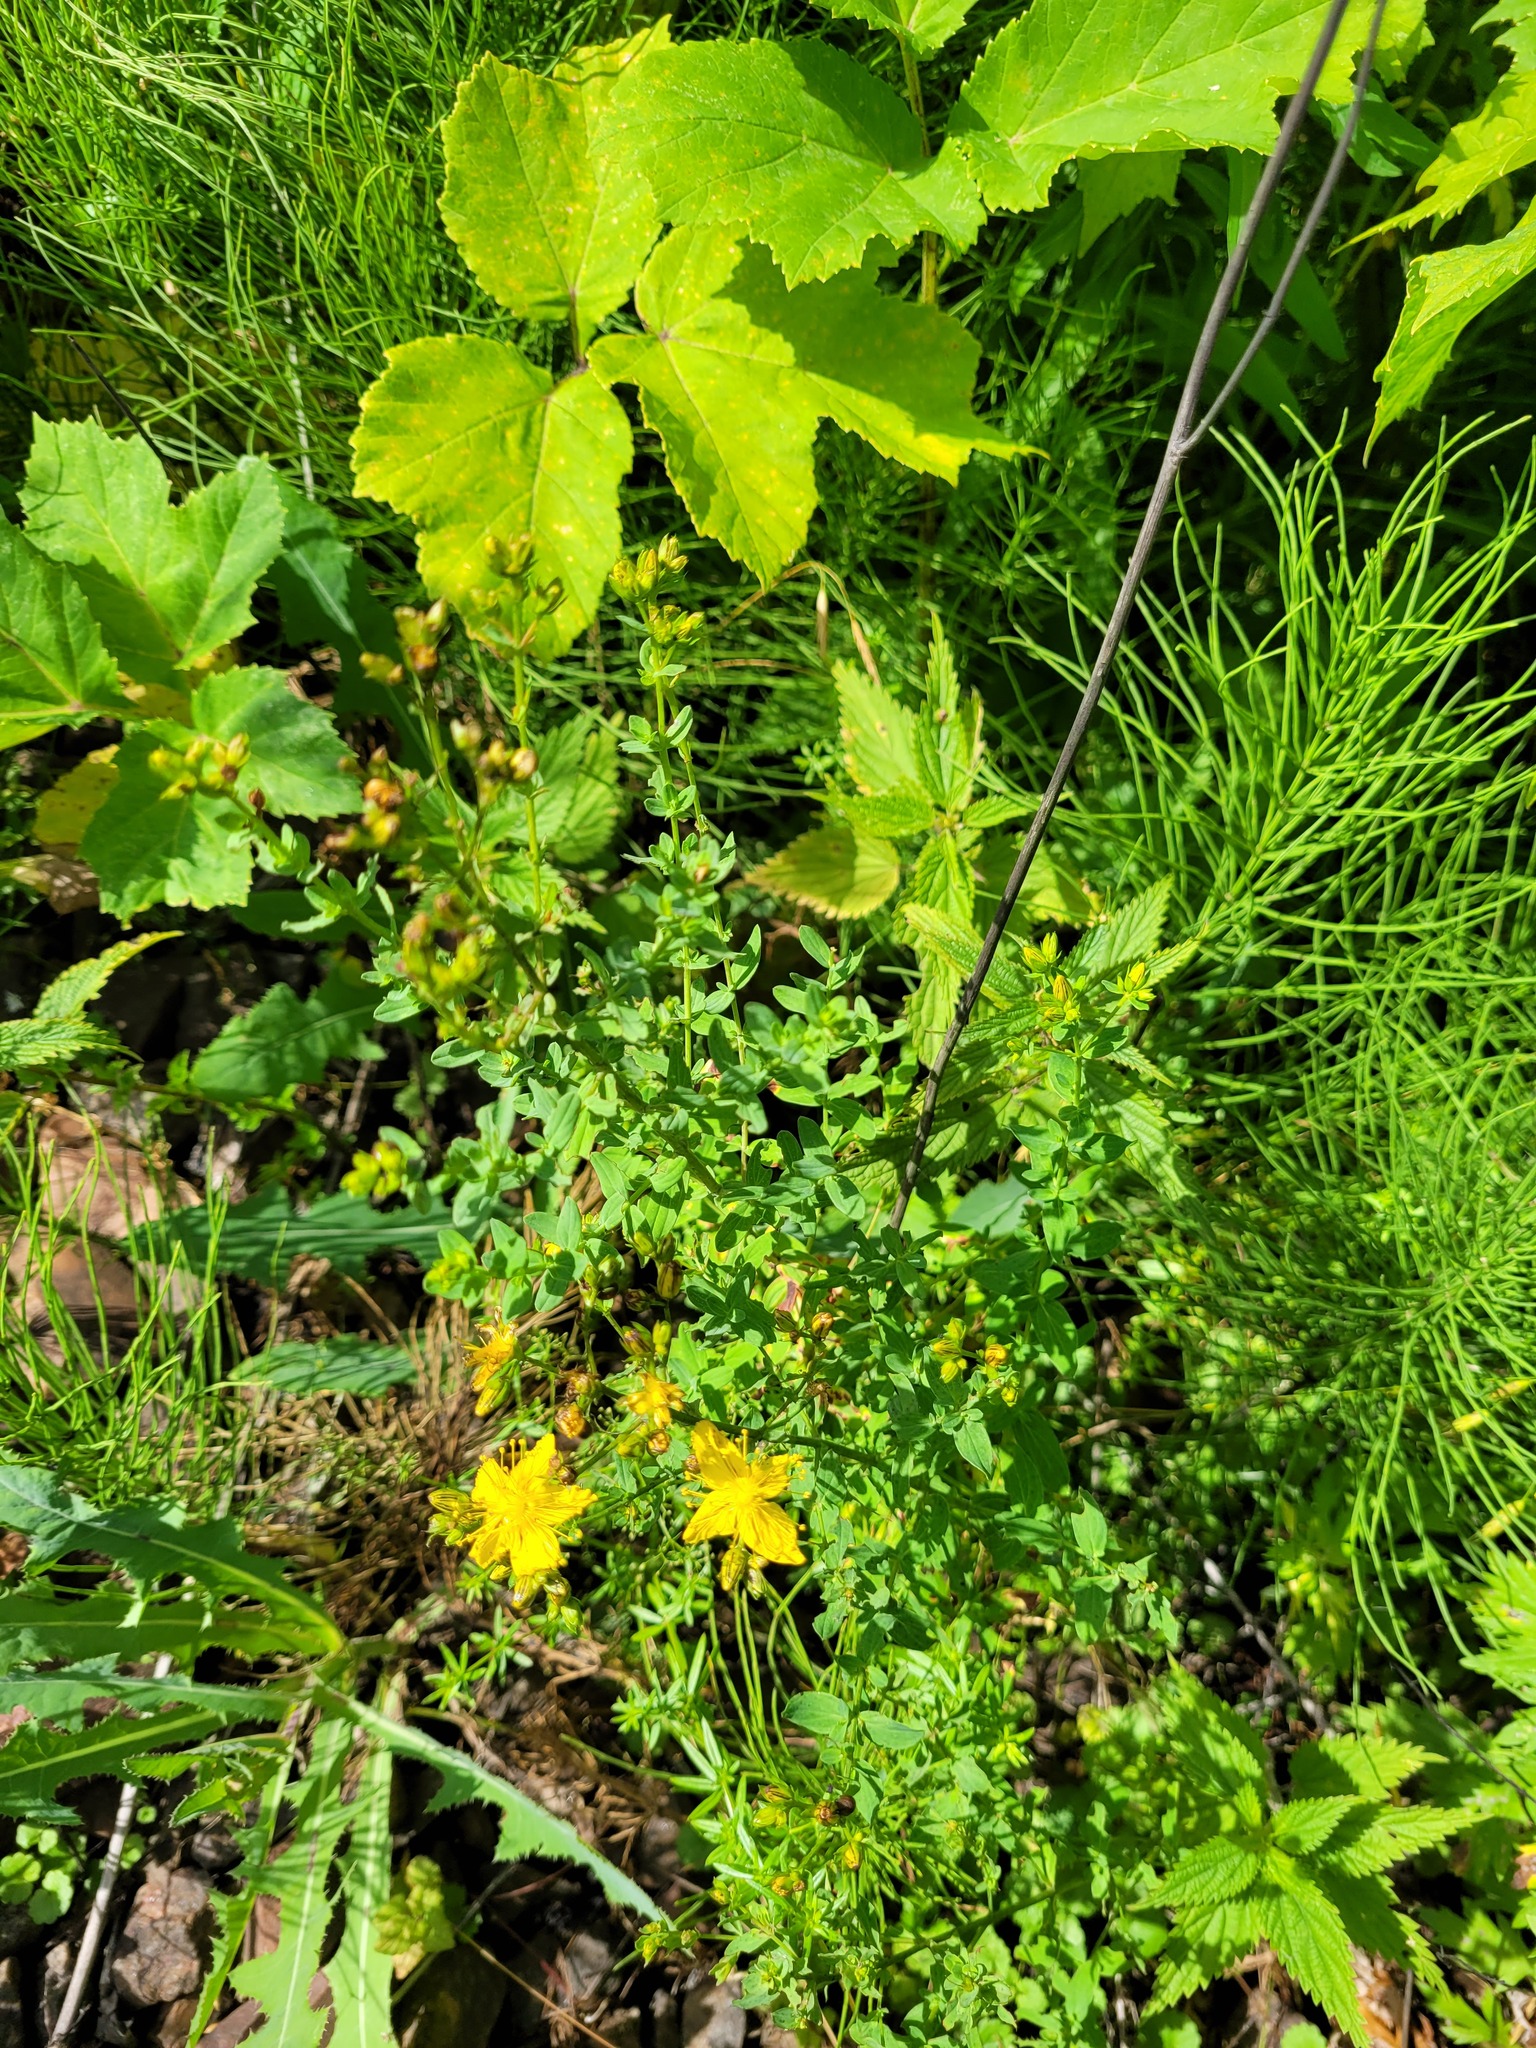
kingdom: Plantae
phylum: Tracheophyta
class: Magnoliopsida
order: Malpighiales
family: Hypericaceae
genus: Hypericum
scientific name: Hypericum perforatum
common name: Common st. johnswort
